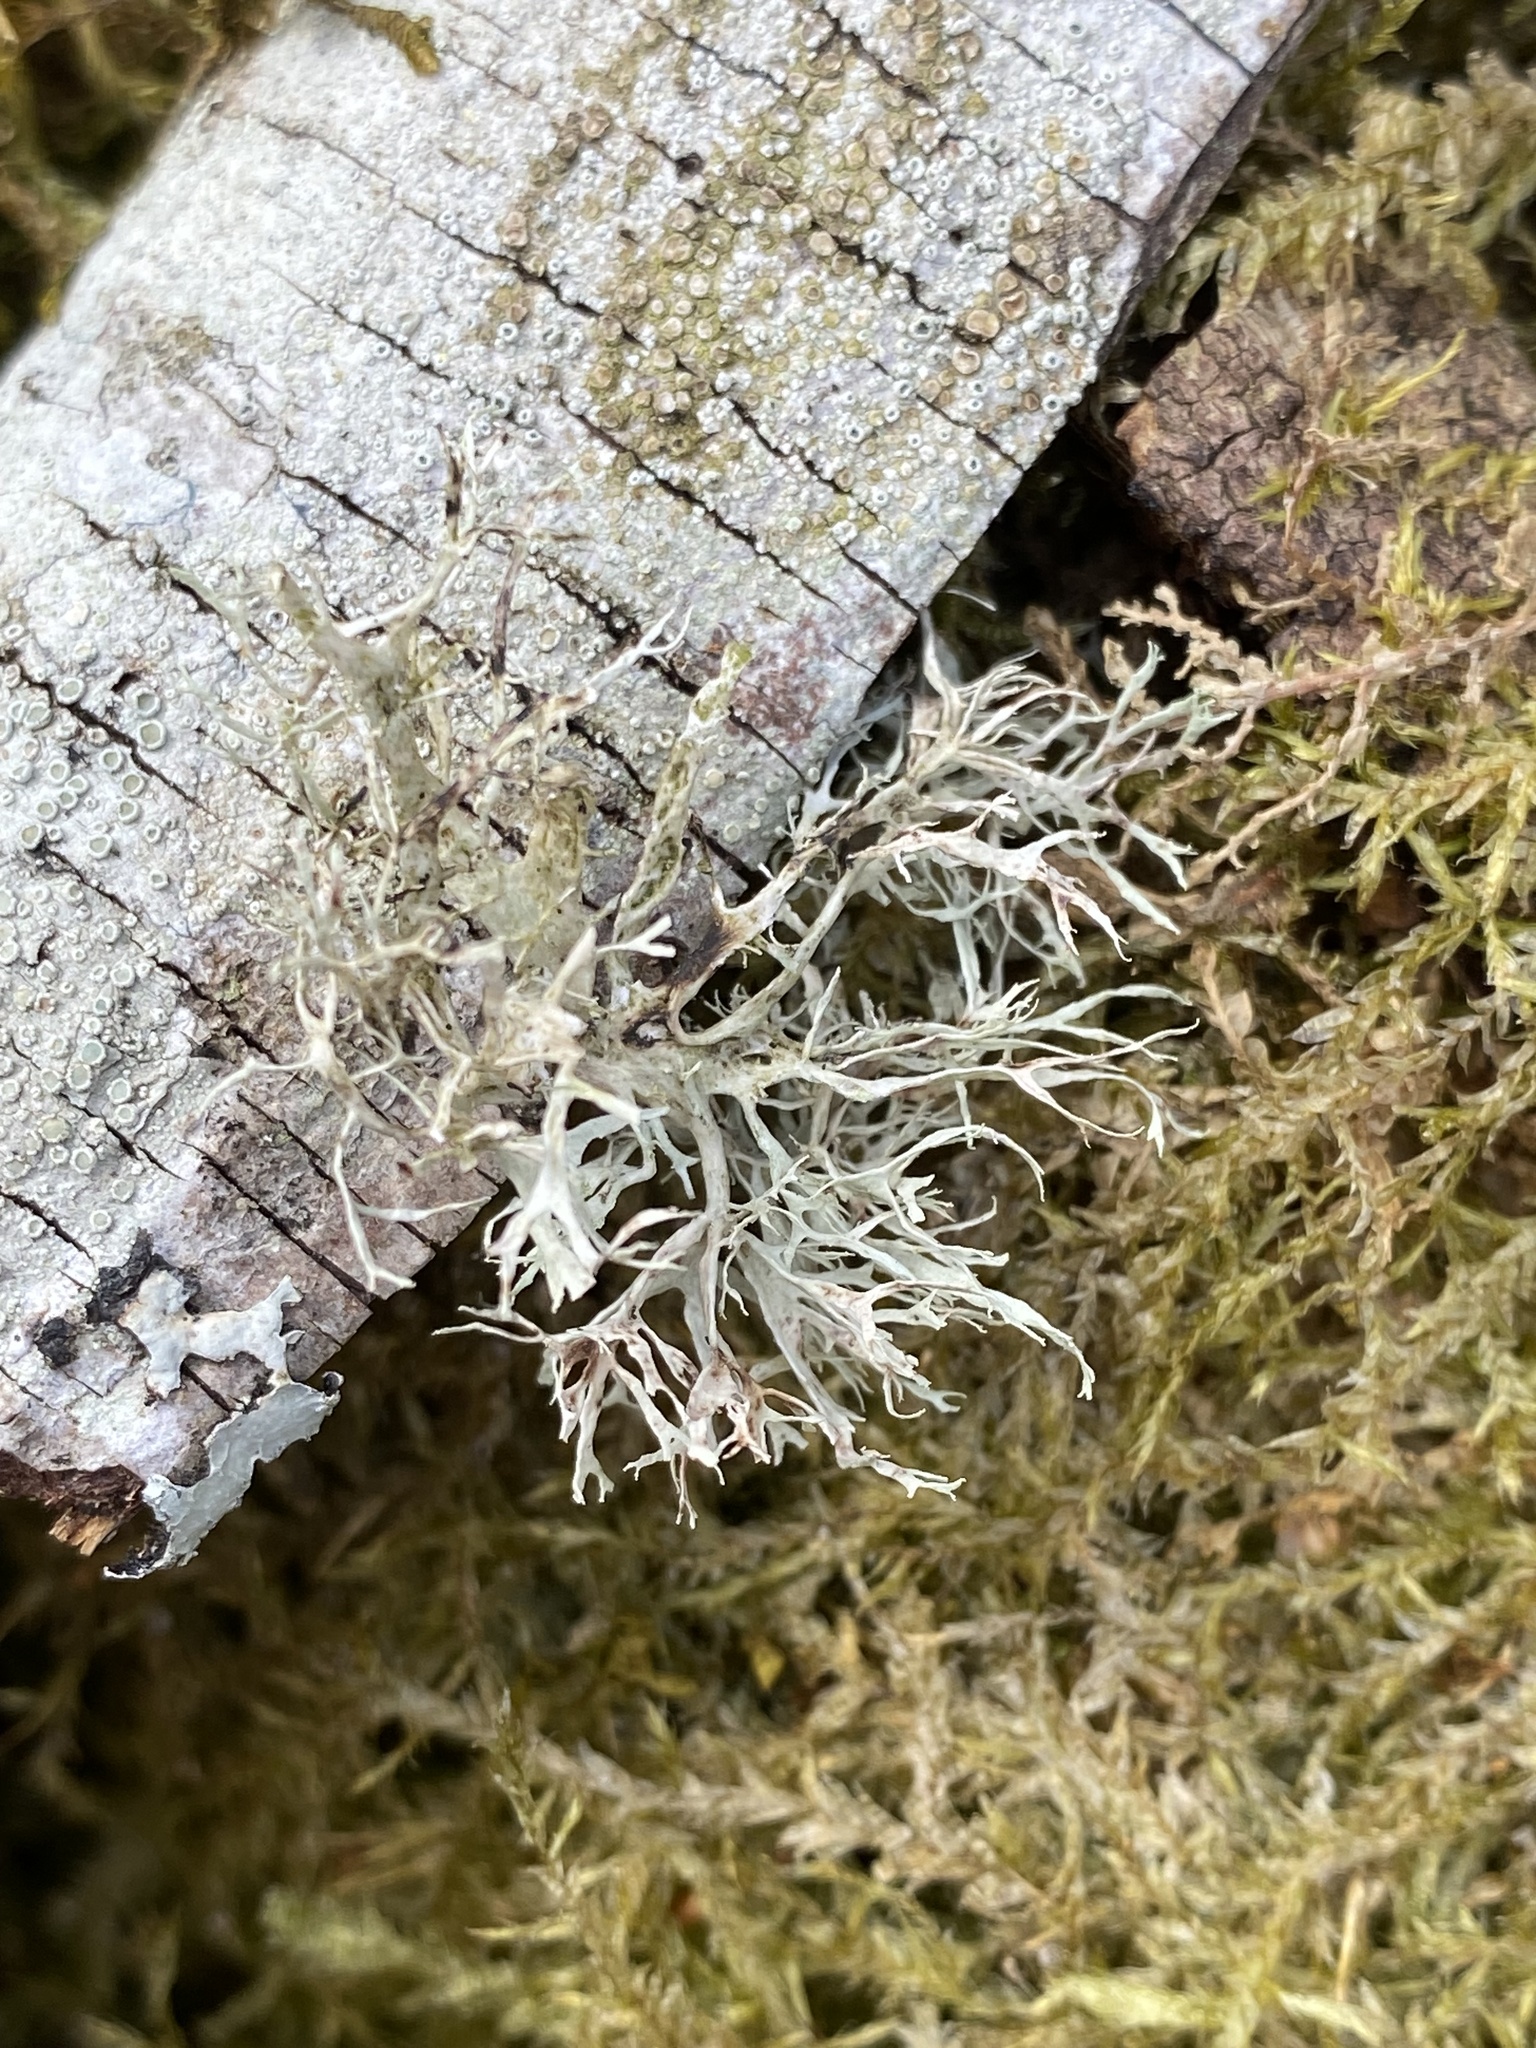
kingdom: Fungi
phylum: Ascomycota
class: Lecanoromycetes
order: Lecanorales
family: Ramalinaceae
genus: Ramalina
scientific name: Ramalina farinacea
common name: Farinose cartilage lichen
